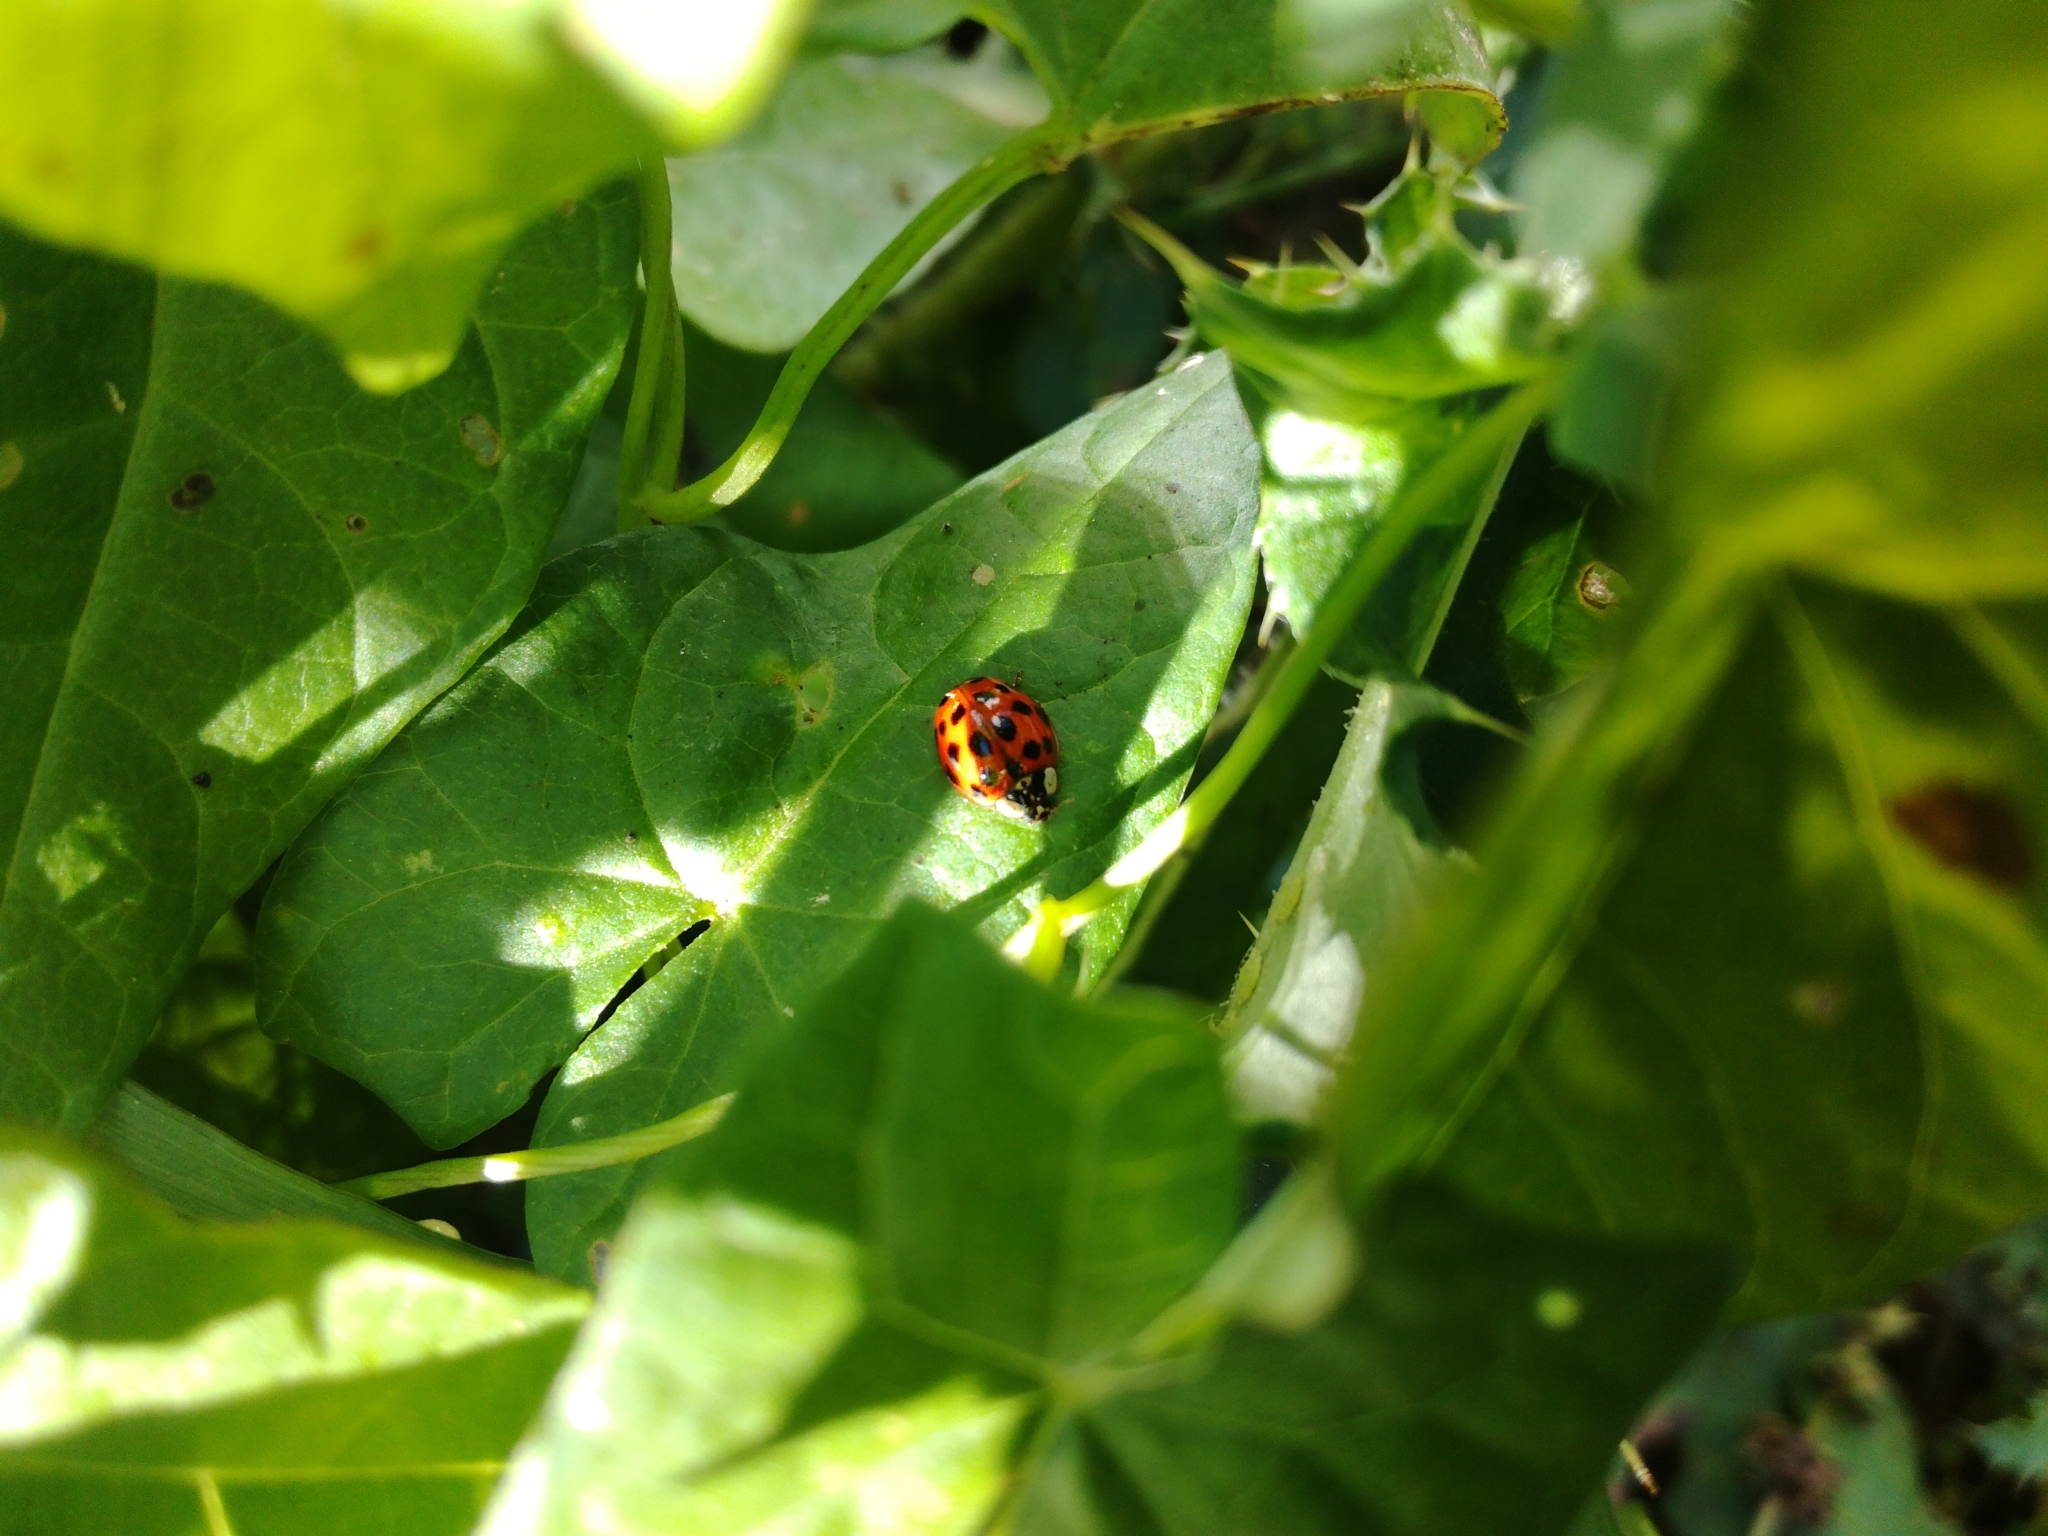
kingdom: Animalia
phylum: Arthropoda
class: Insecta
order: Coleoptera
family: Coccinellidae
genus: Harmonia
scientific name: Harmonia axyridis
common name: Harlequin ladybird
